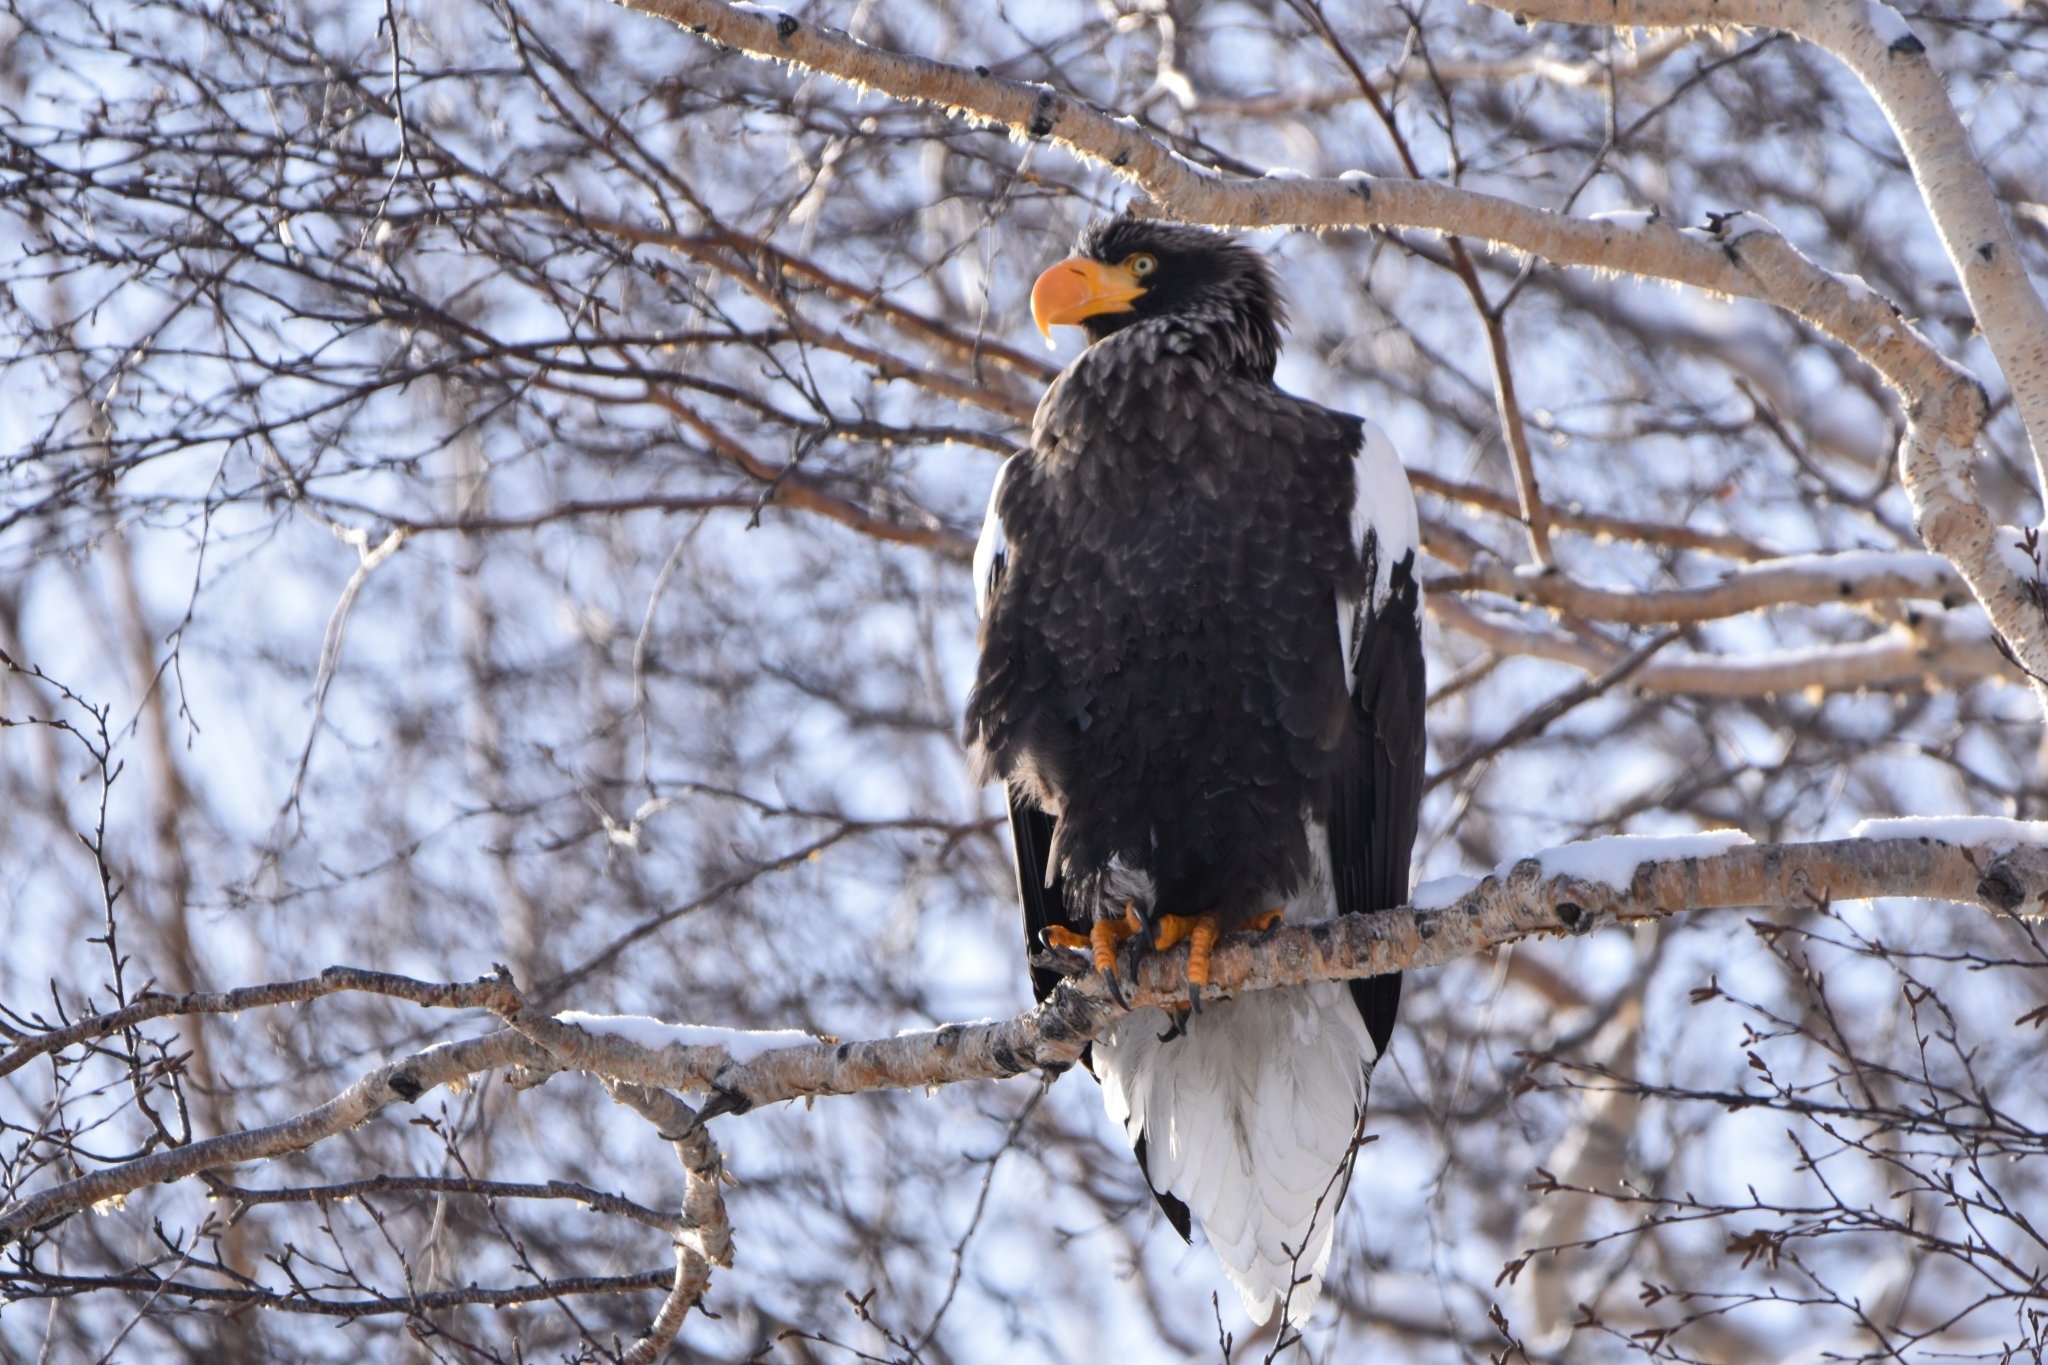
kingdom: Animalia
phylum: Chordata
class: Aves
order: Accipitriformes
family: Accipitridae
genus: Haliaeetus
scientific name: Haliaeetus pelagicus
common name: Steller's sea eagle
